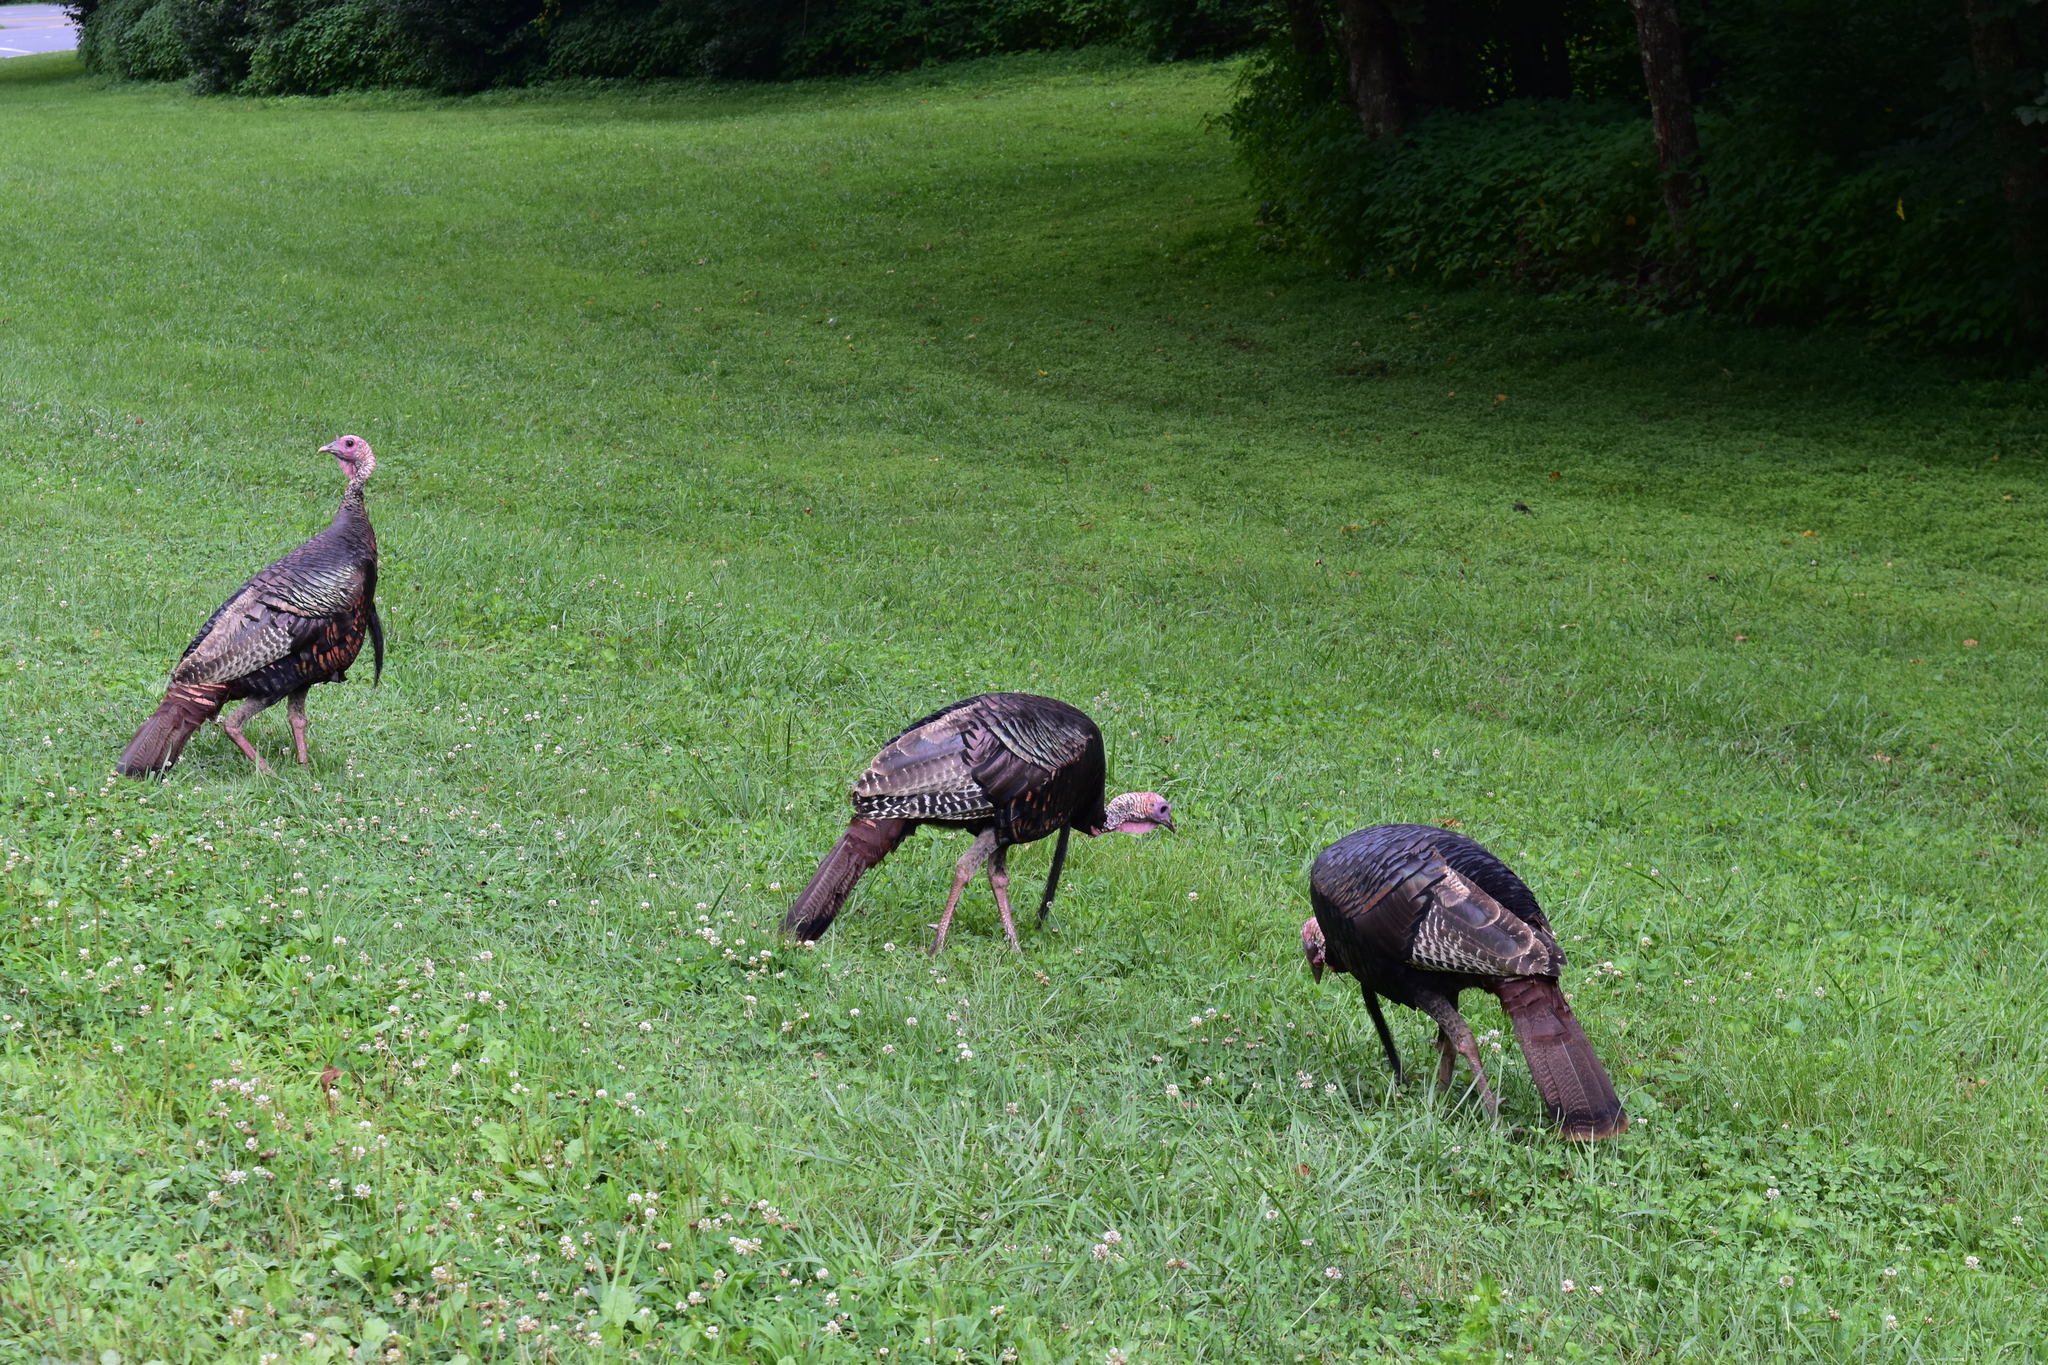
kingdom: Animalia
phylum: Chordata
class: Aves
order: Galliformes
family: Phasianidae
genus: Meleagris
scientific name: Meleagris gallopavo
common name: Wild turkey
